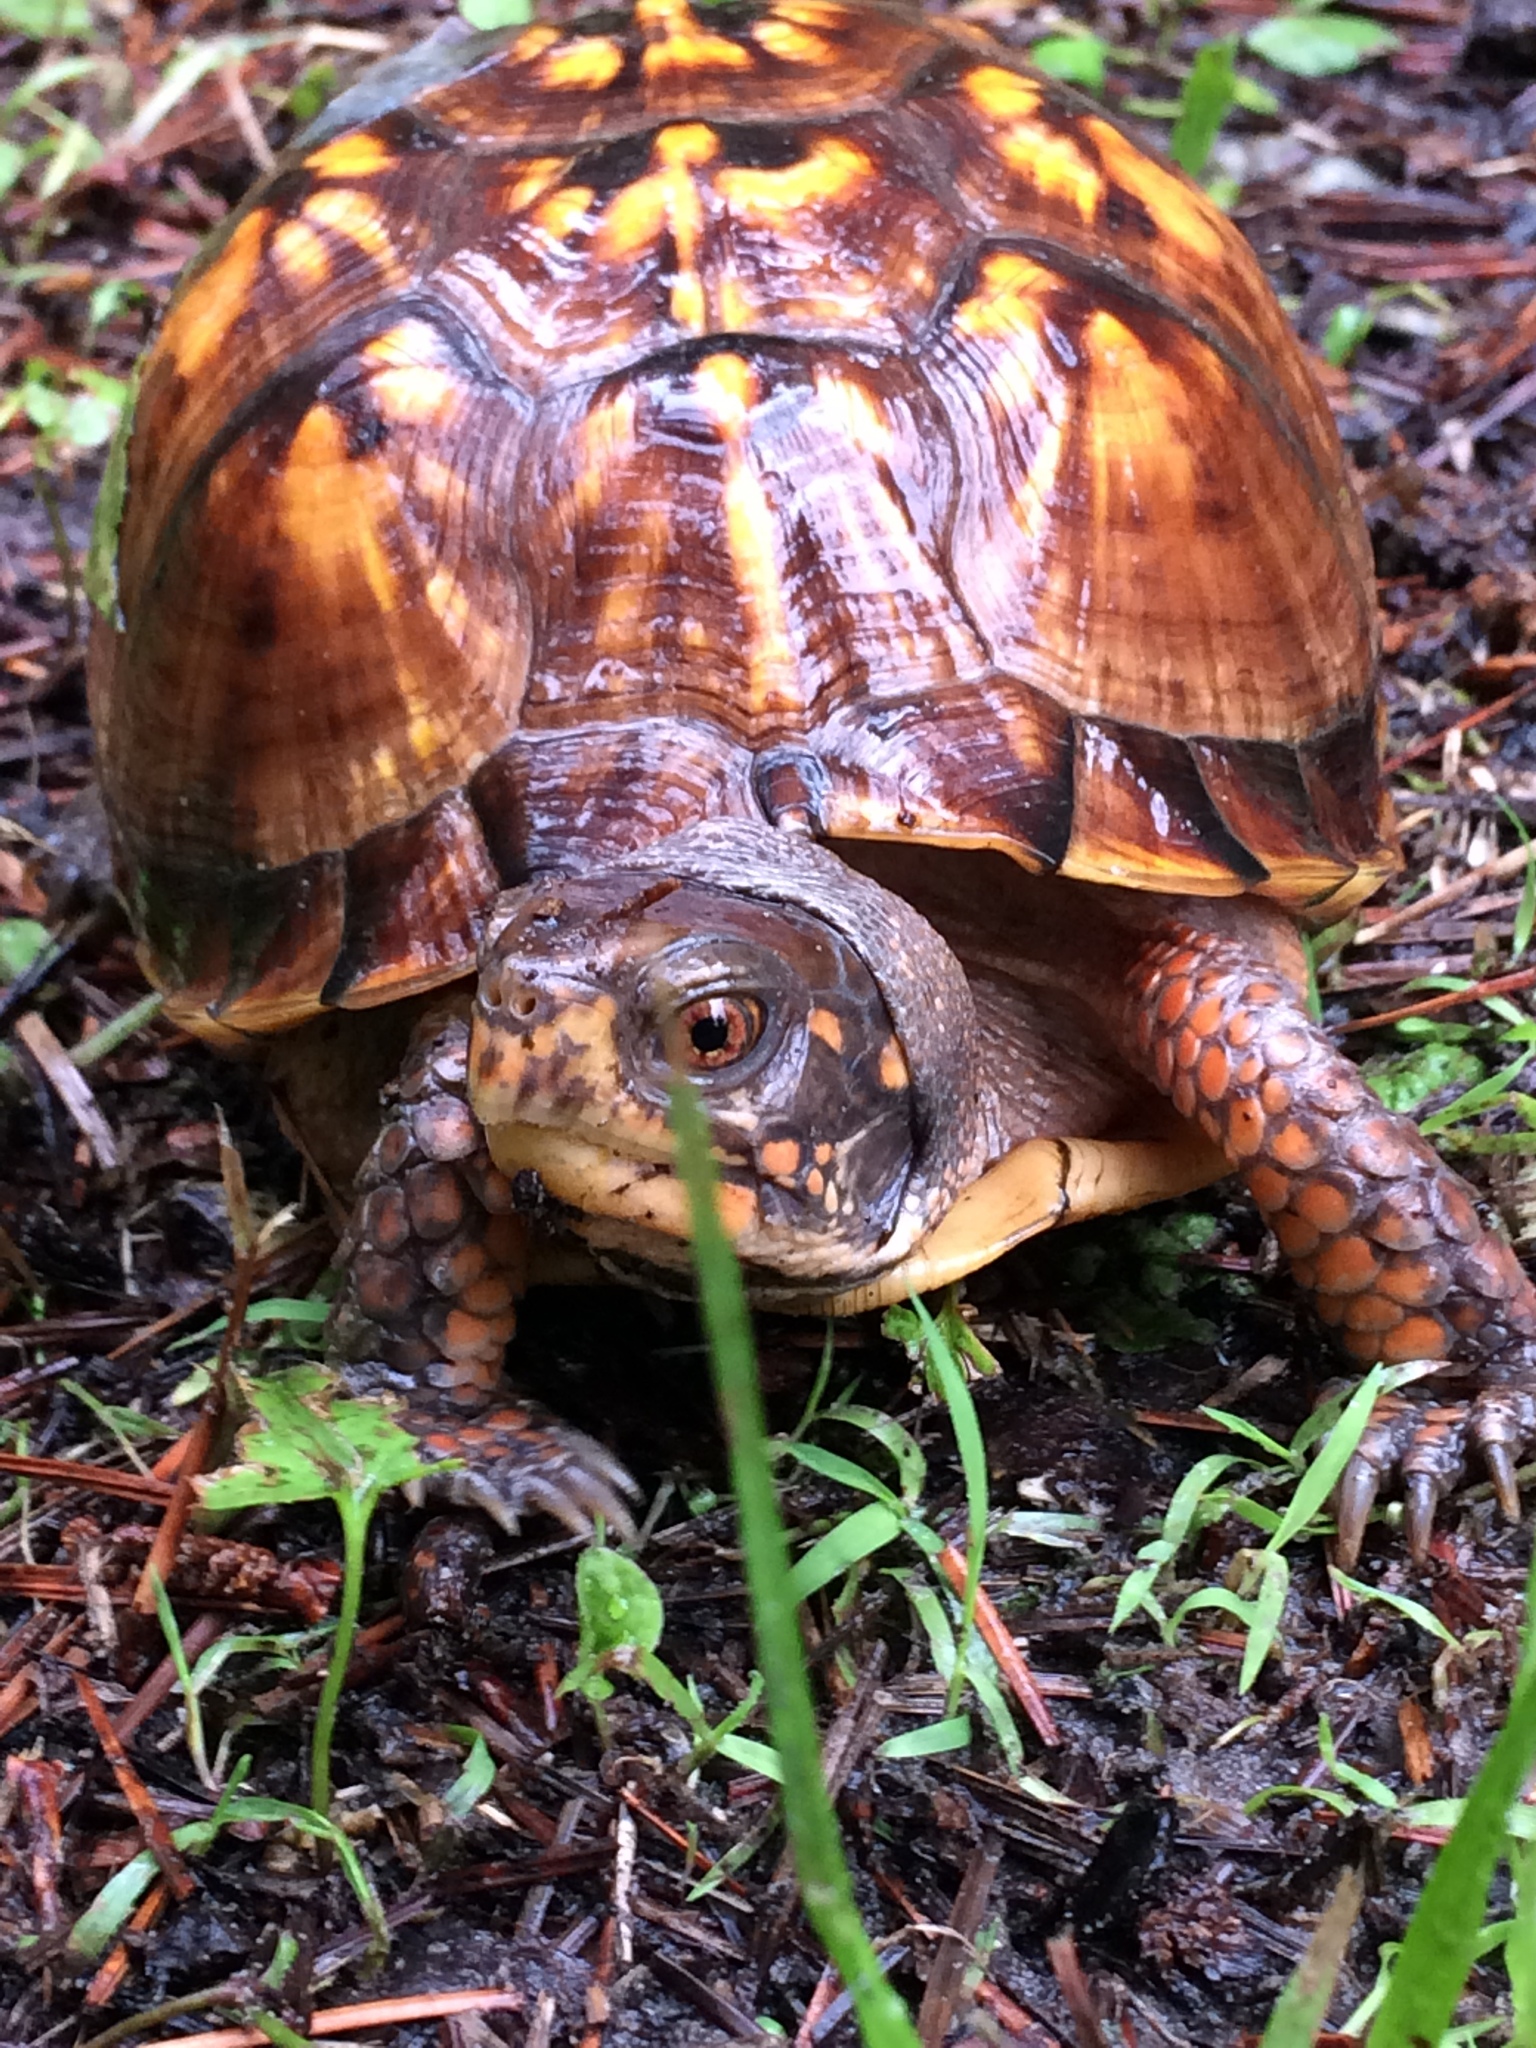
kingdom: Animalia
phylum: Chordata
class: Testudines
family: Emydidae
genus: Terrapene
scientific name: Terrapene carolina
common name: Common box turtle
